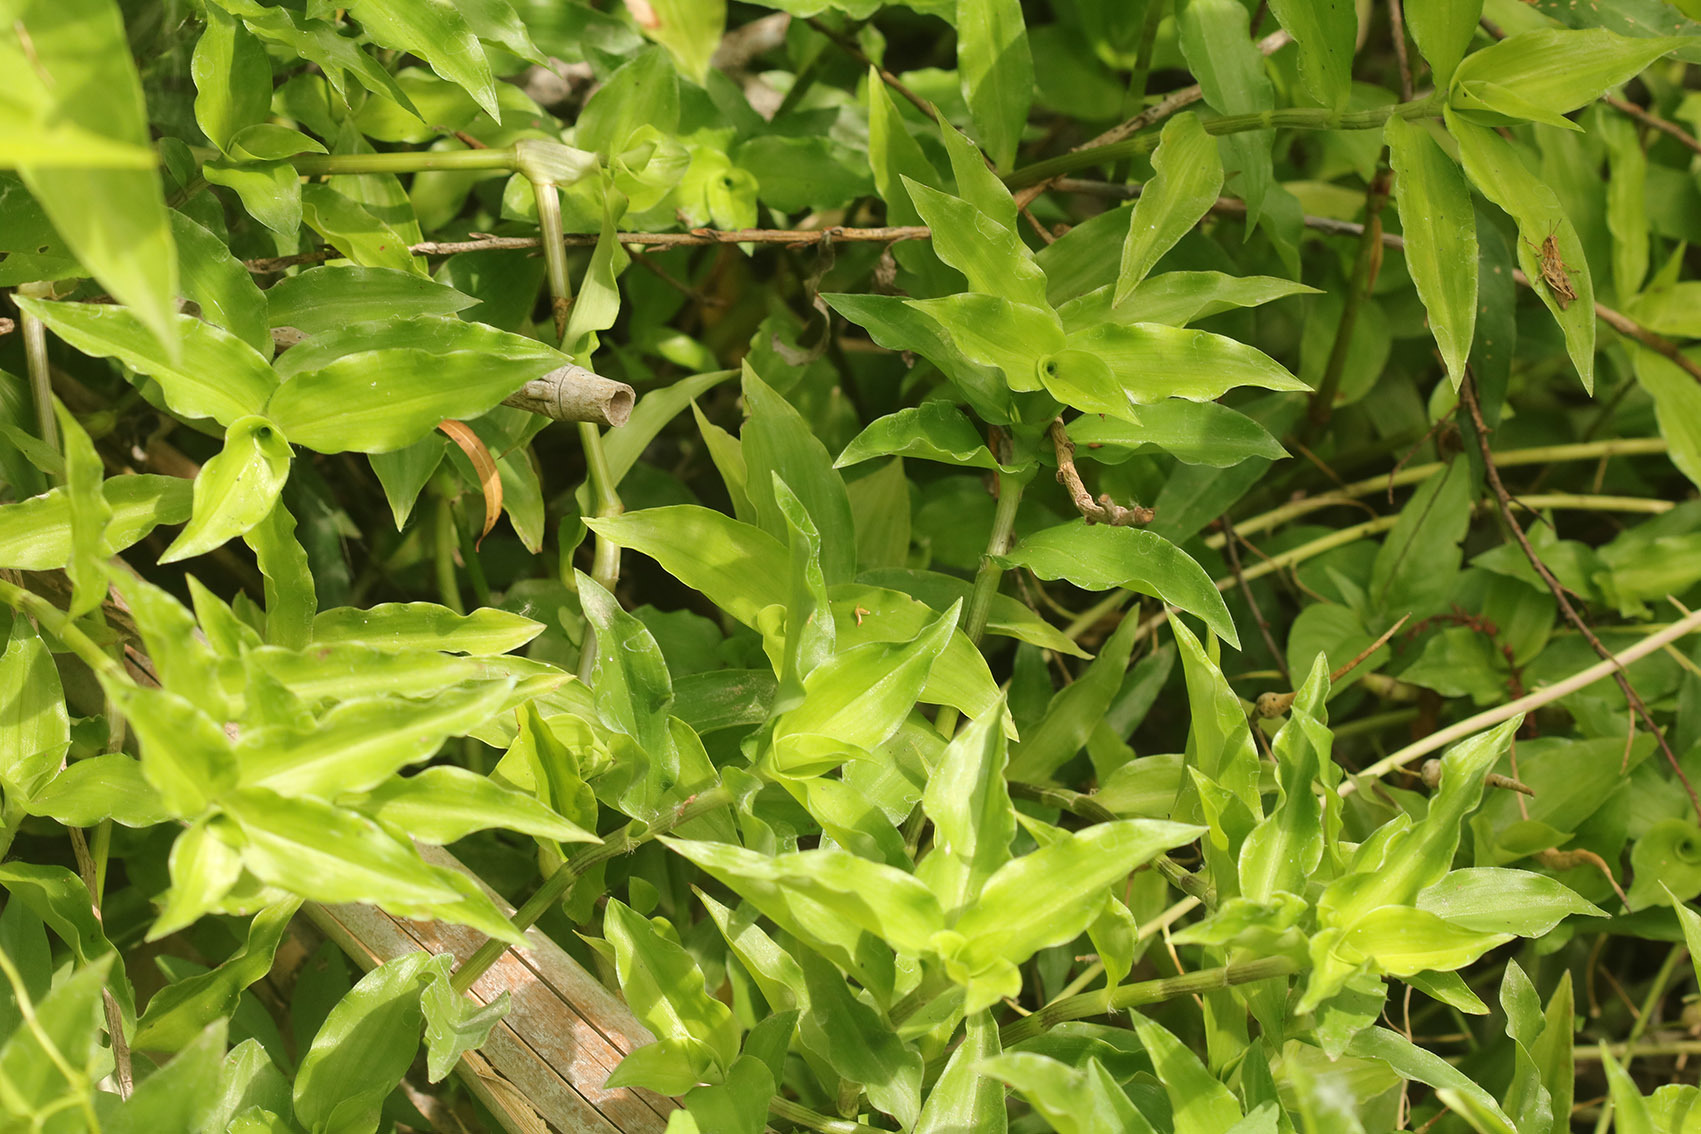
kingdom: Plantae
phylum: Tracheophyta
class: Liliopsida
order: Commelinales
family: Commelinaceae
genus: Callisia
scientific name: Callisia diuretica
